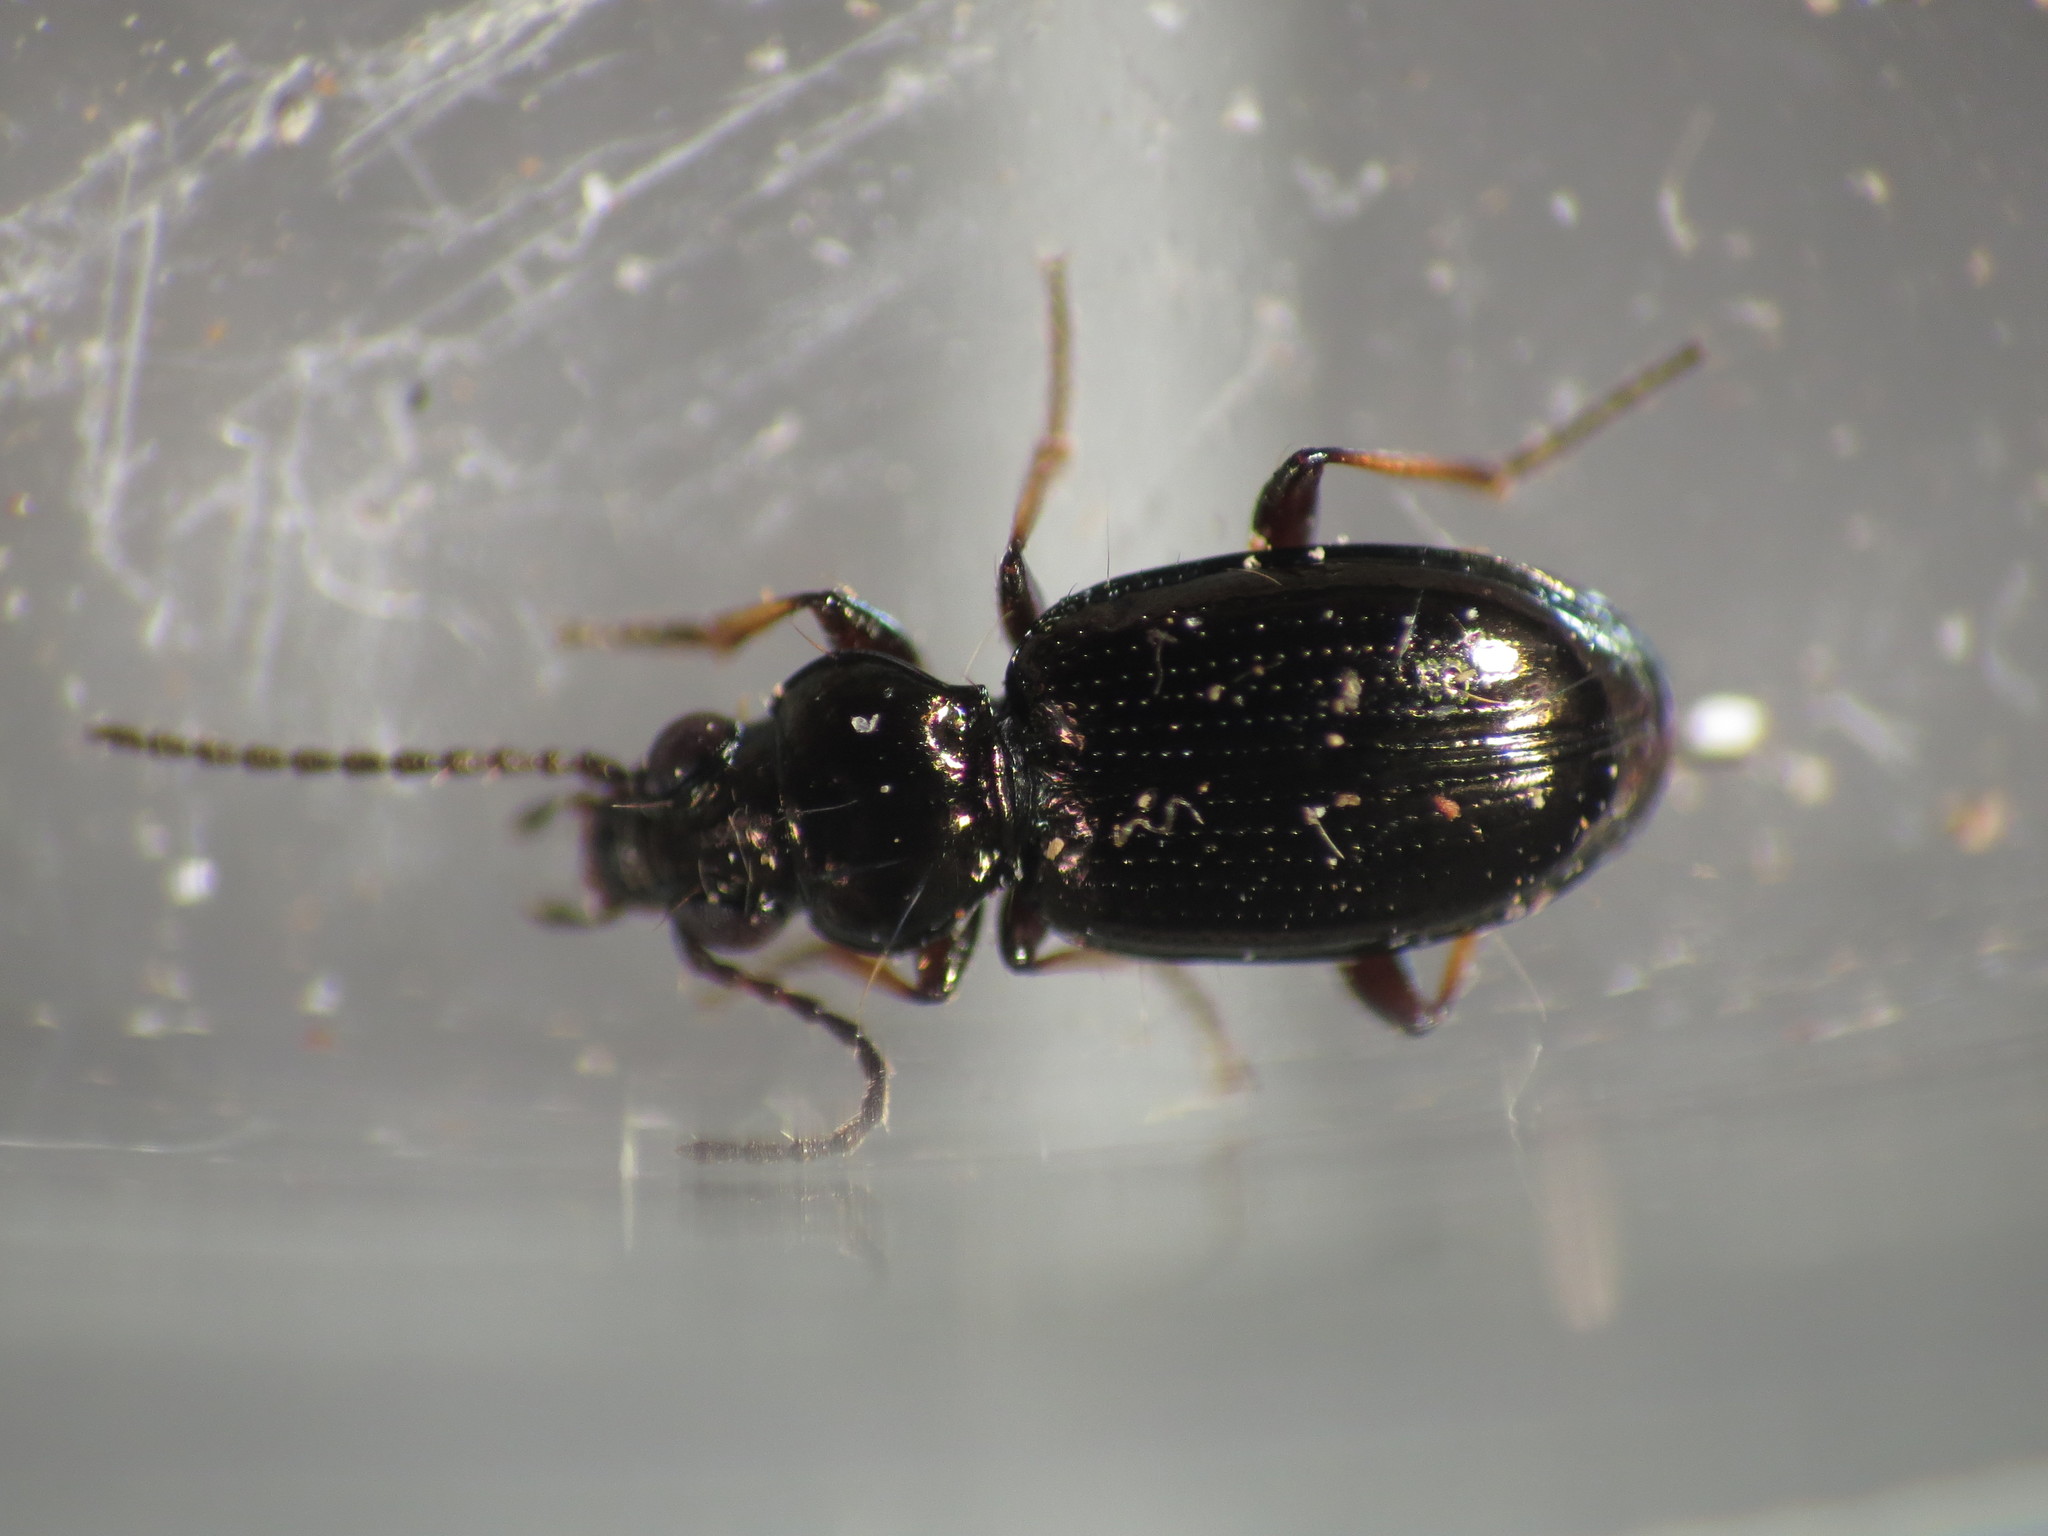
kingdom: Animalia
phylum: Arthropoda
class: Insecta
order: Coleoptera
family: Carabidae
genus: Bembidion
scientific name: Bembidion lampros
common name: Shiny riverbank ground beetle
